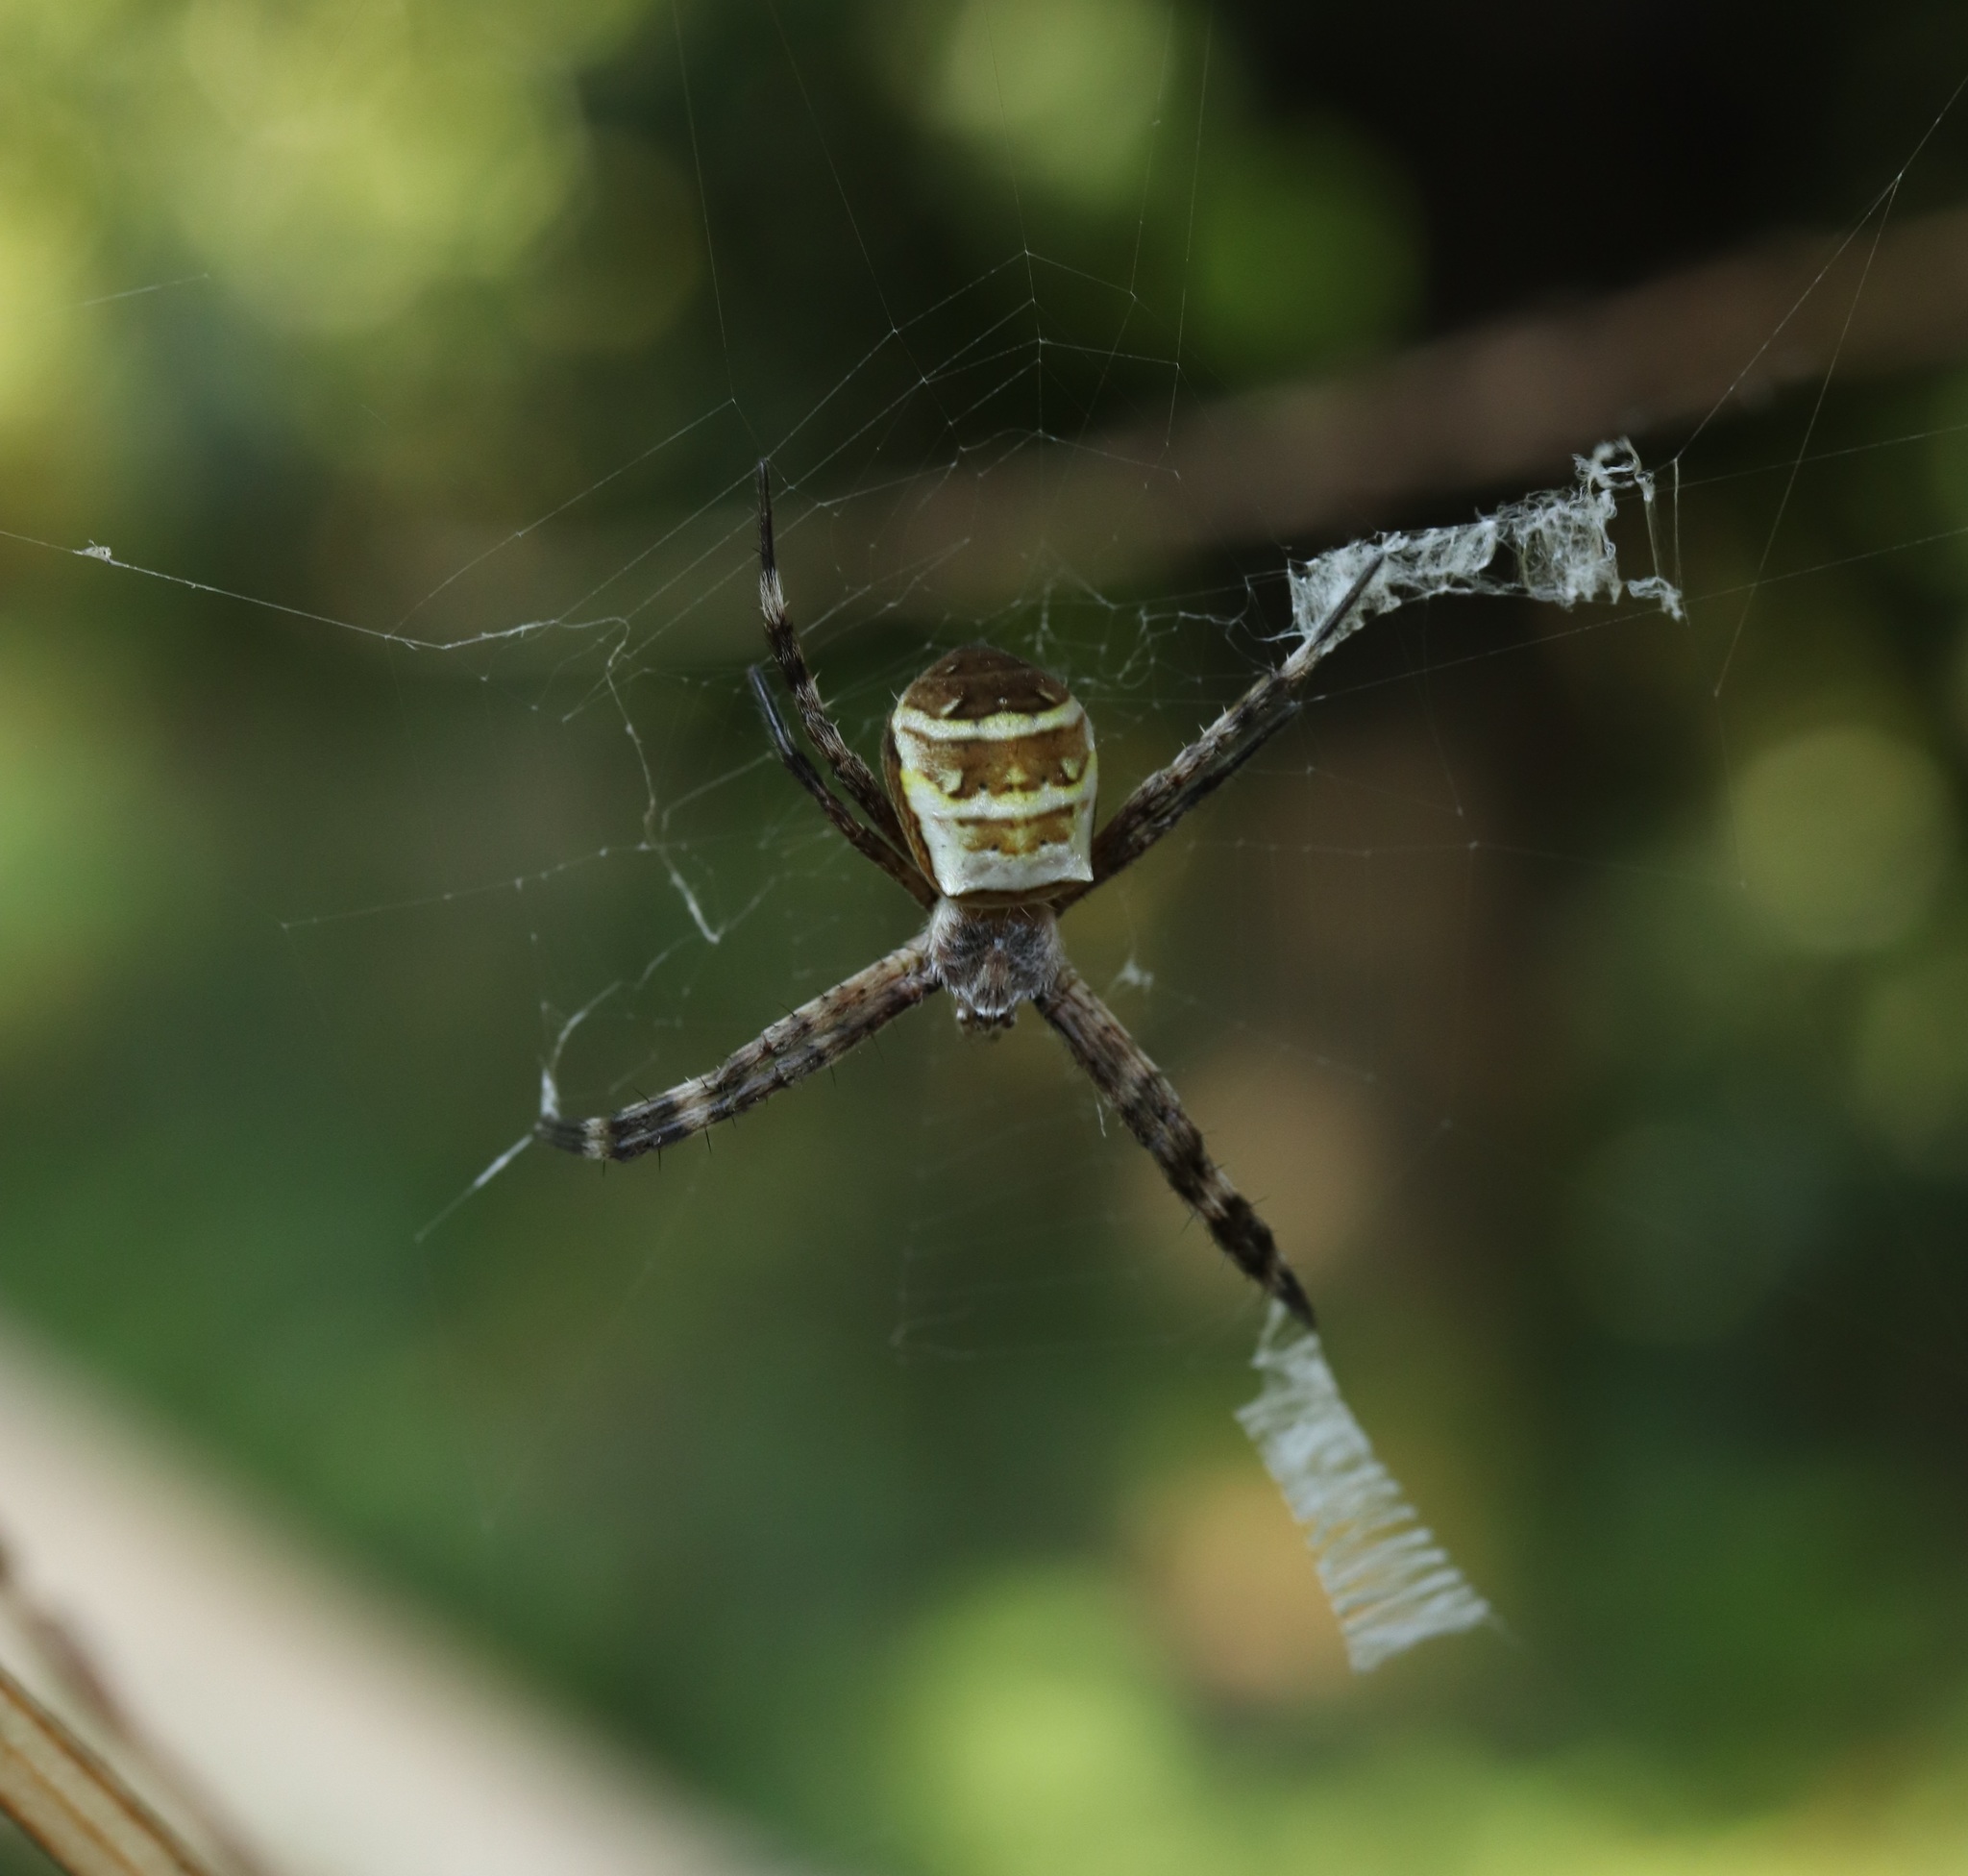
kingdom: Animalia
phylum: Arthropoda
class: Arachnida
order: Araneae
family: Araneidae
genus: Argiope
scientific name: Argiope amoena
